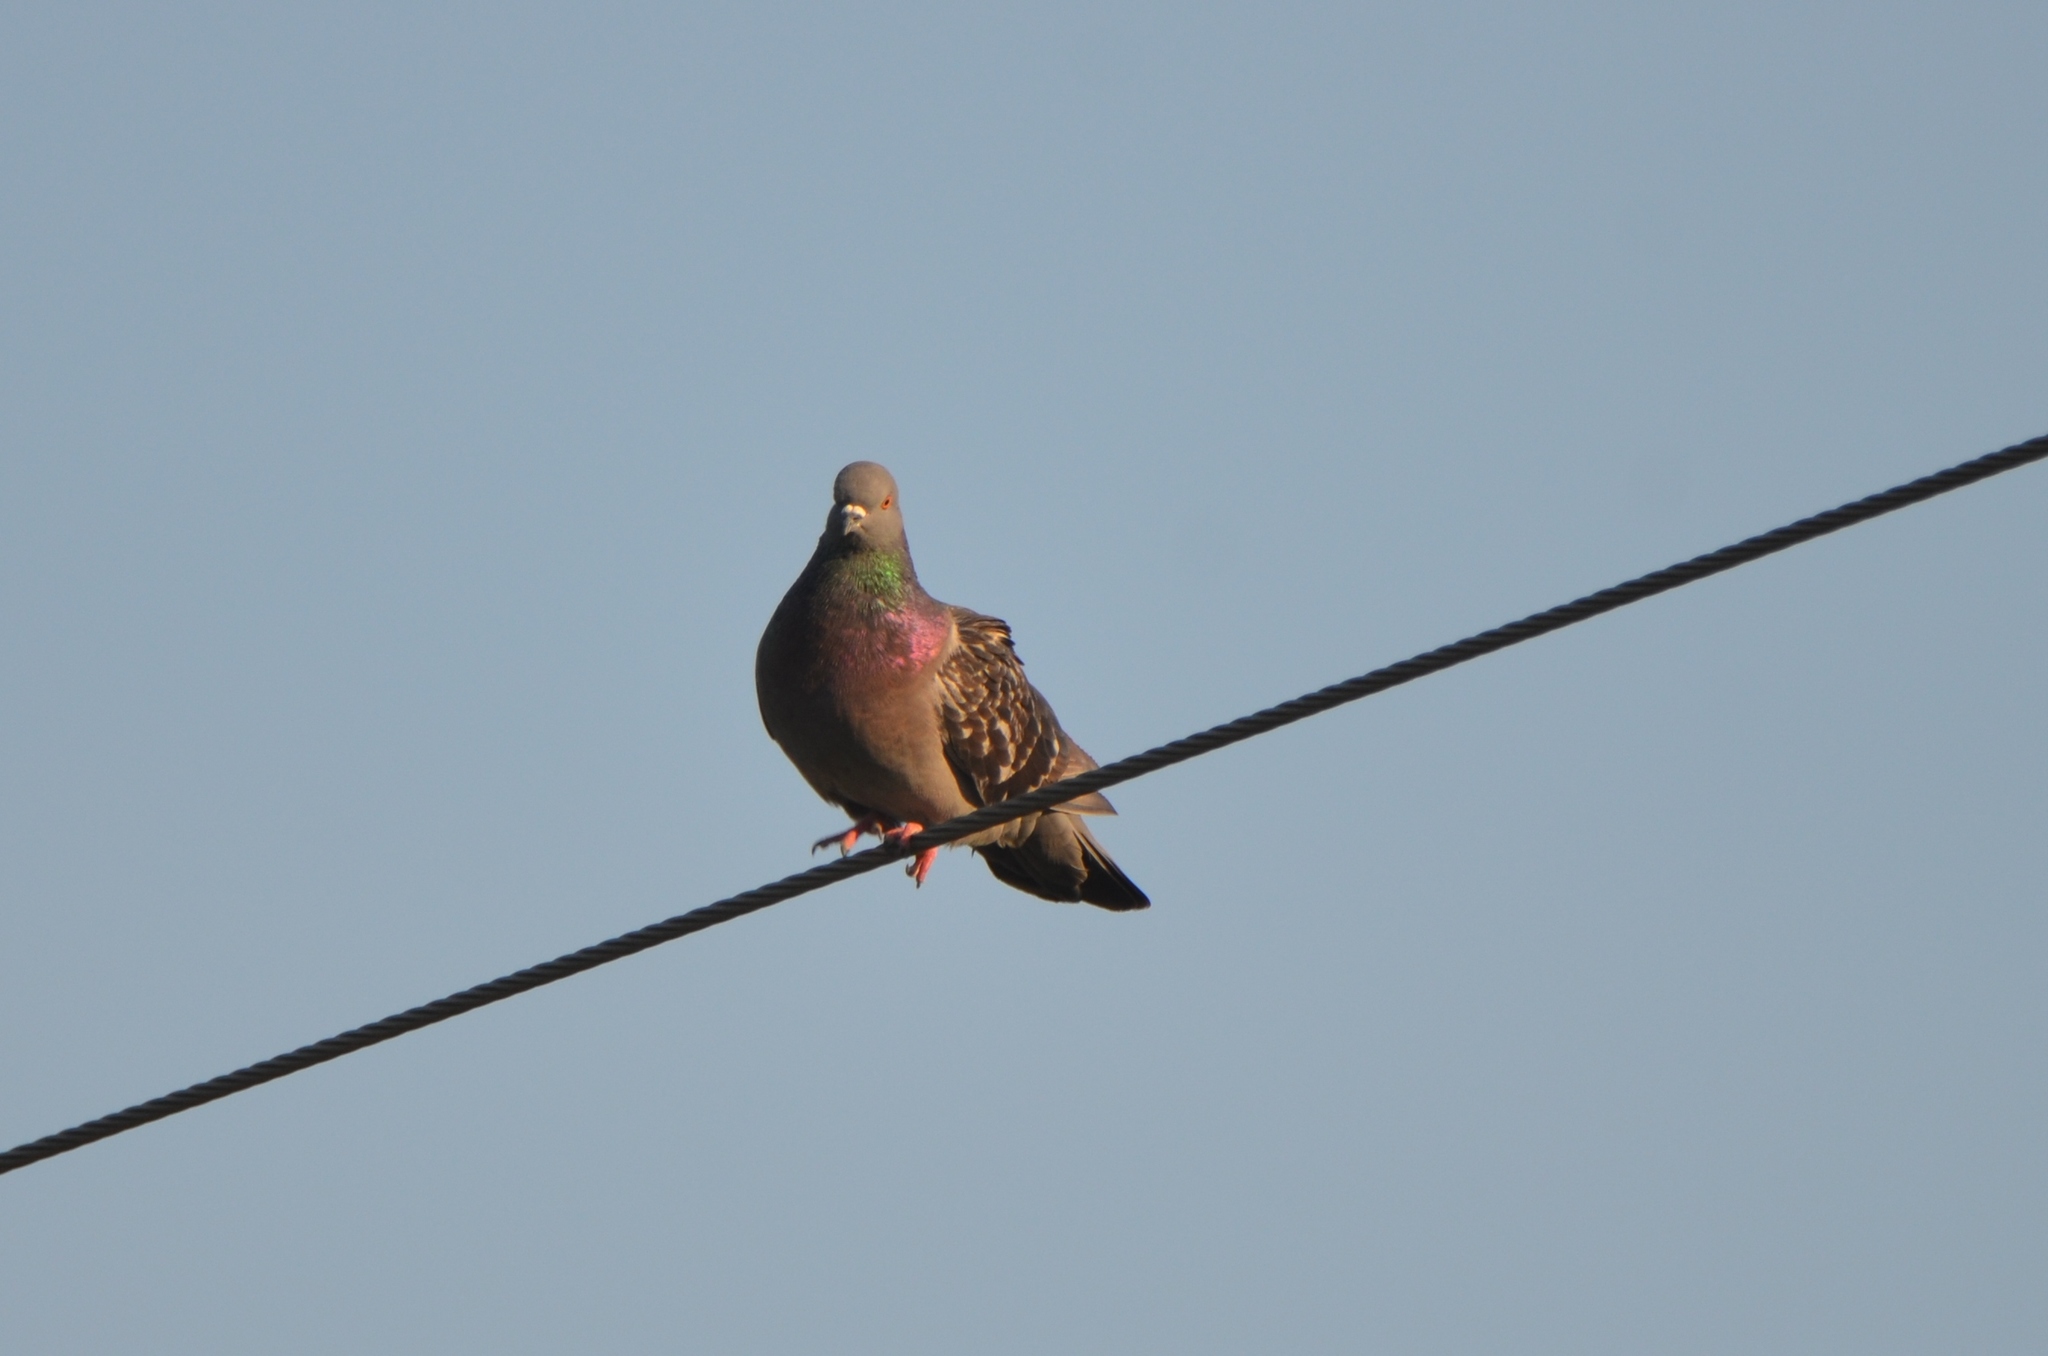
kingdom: Animalia
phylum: Chordata
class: Aves
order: Columbiformes
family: Columbidae
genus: Columba
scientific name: Columba livia
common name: Rock pigeon
